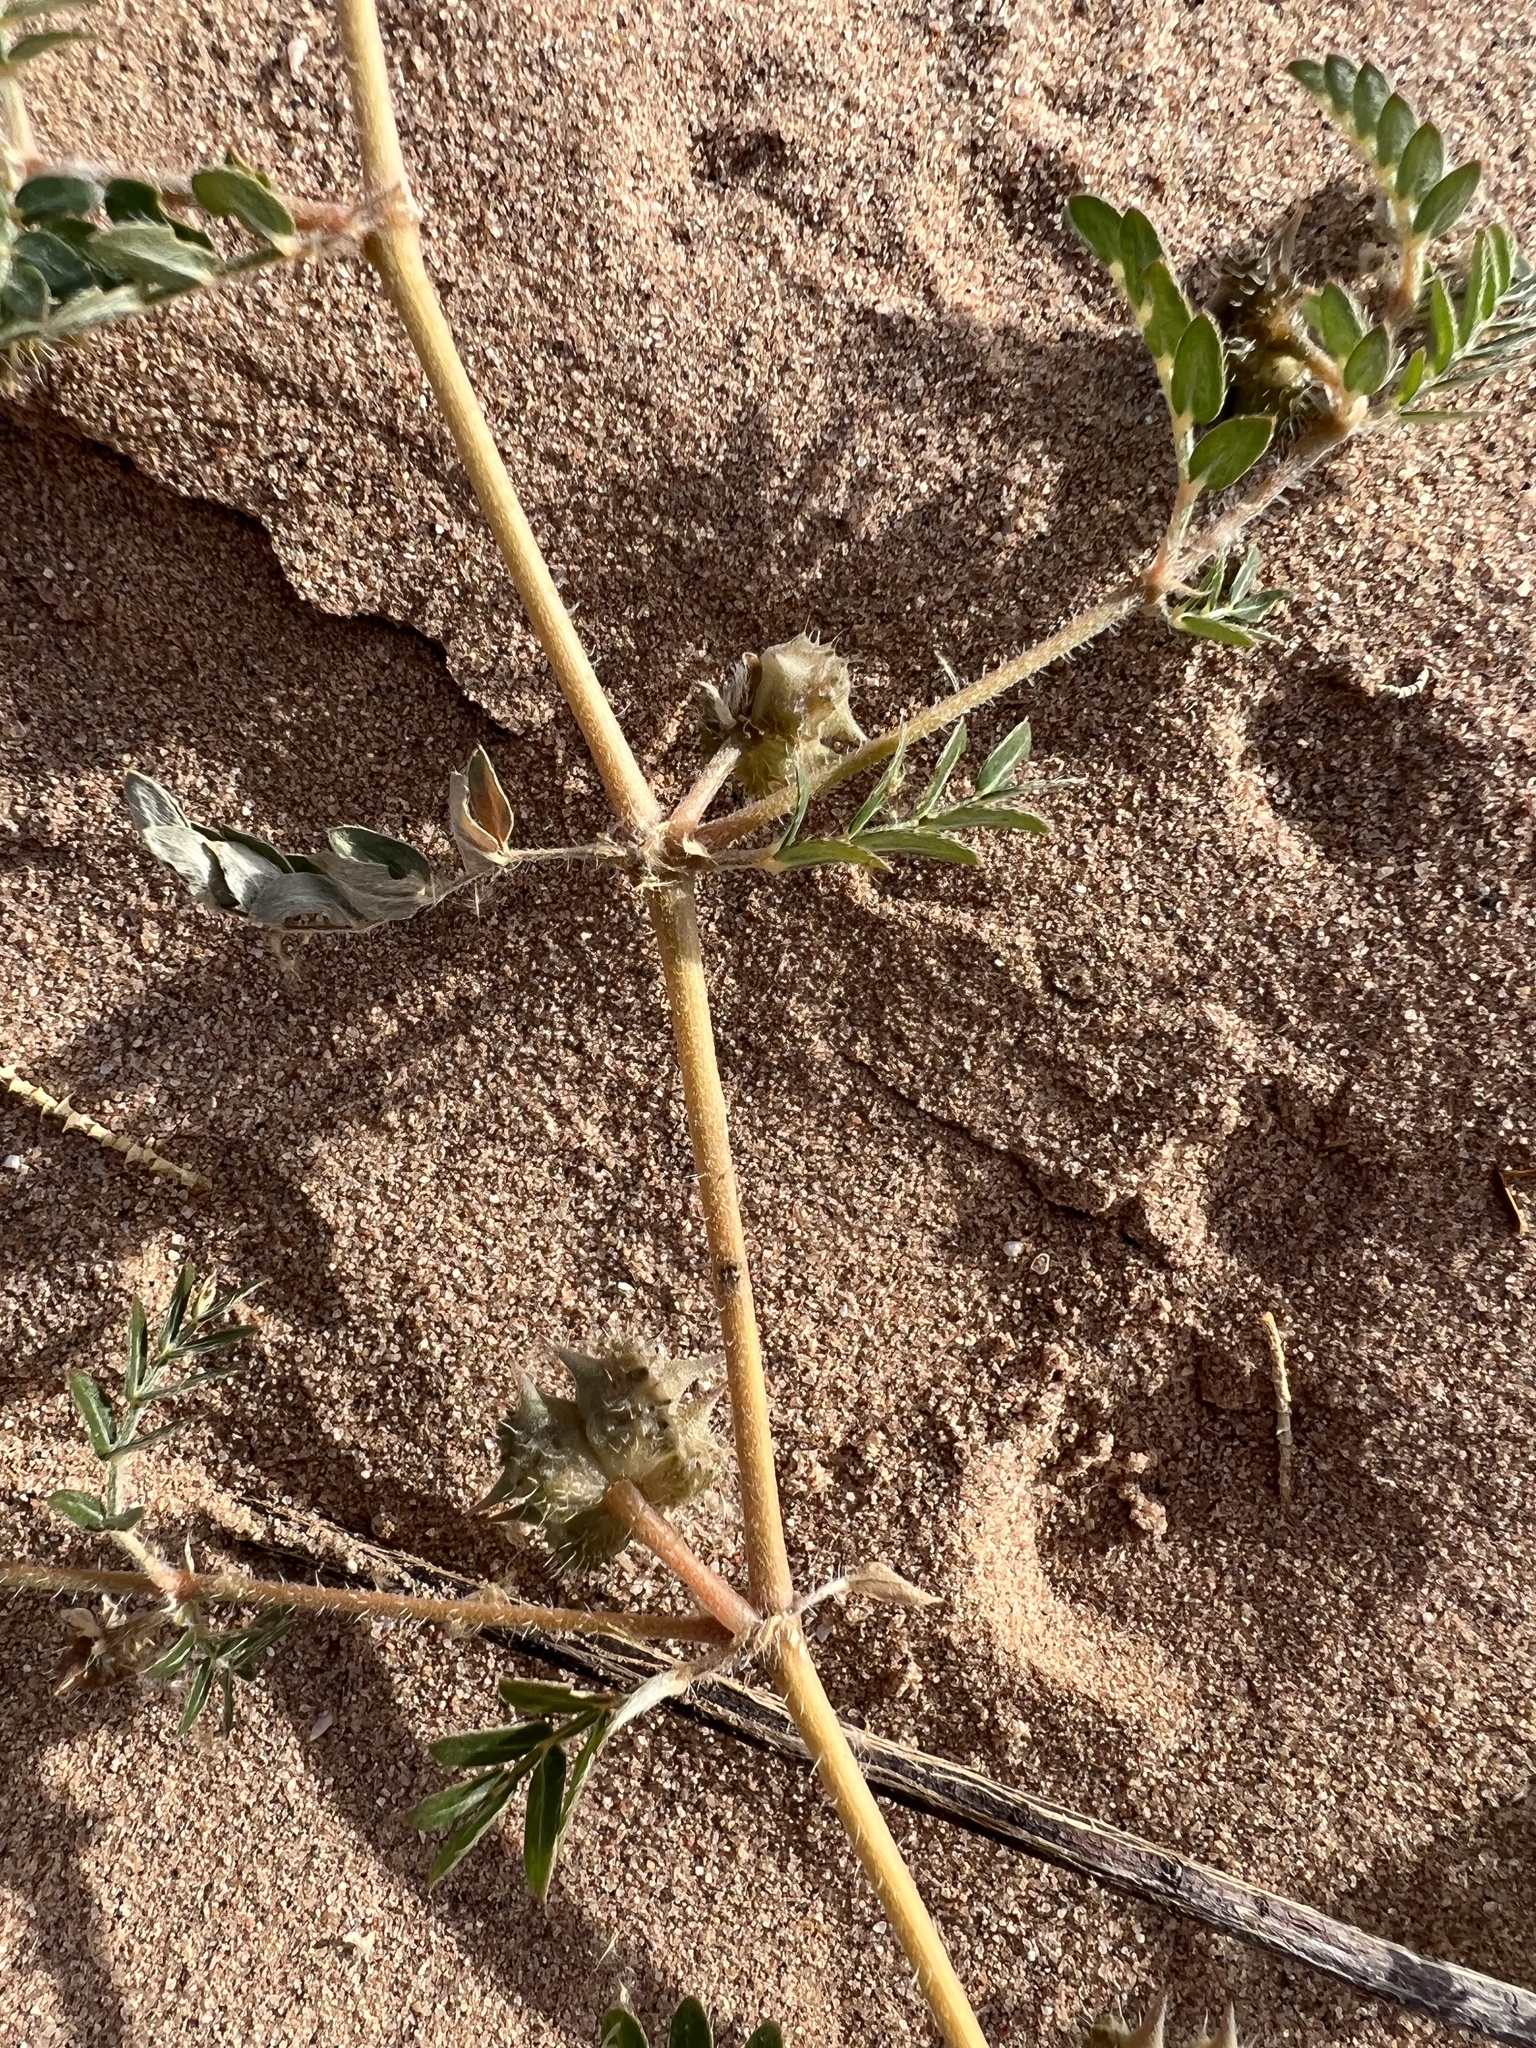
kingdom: Plantae
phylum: Tracheophyta
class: Magnoliopsida
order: Zygophyllales
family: Zygophyllaceae
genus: Tribulus
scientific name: Tribulus terrestris
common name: Puncturevine
